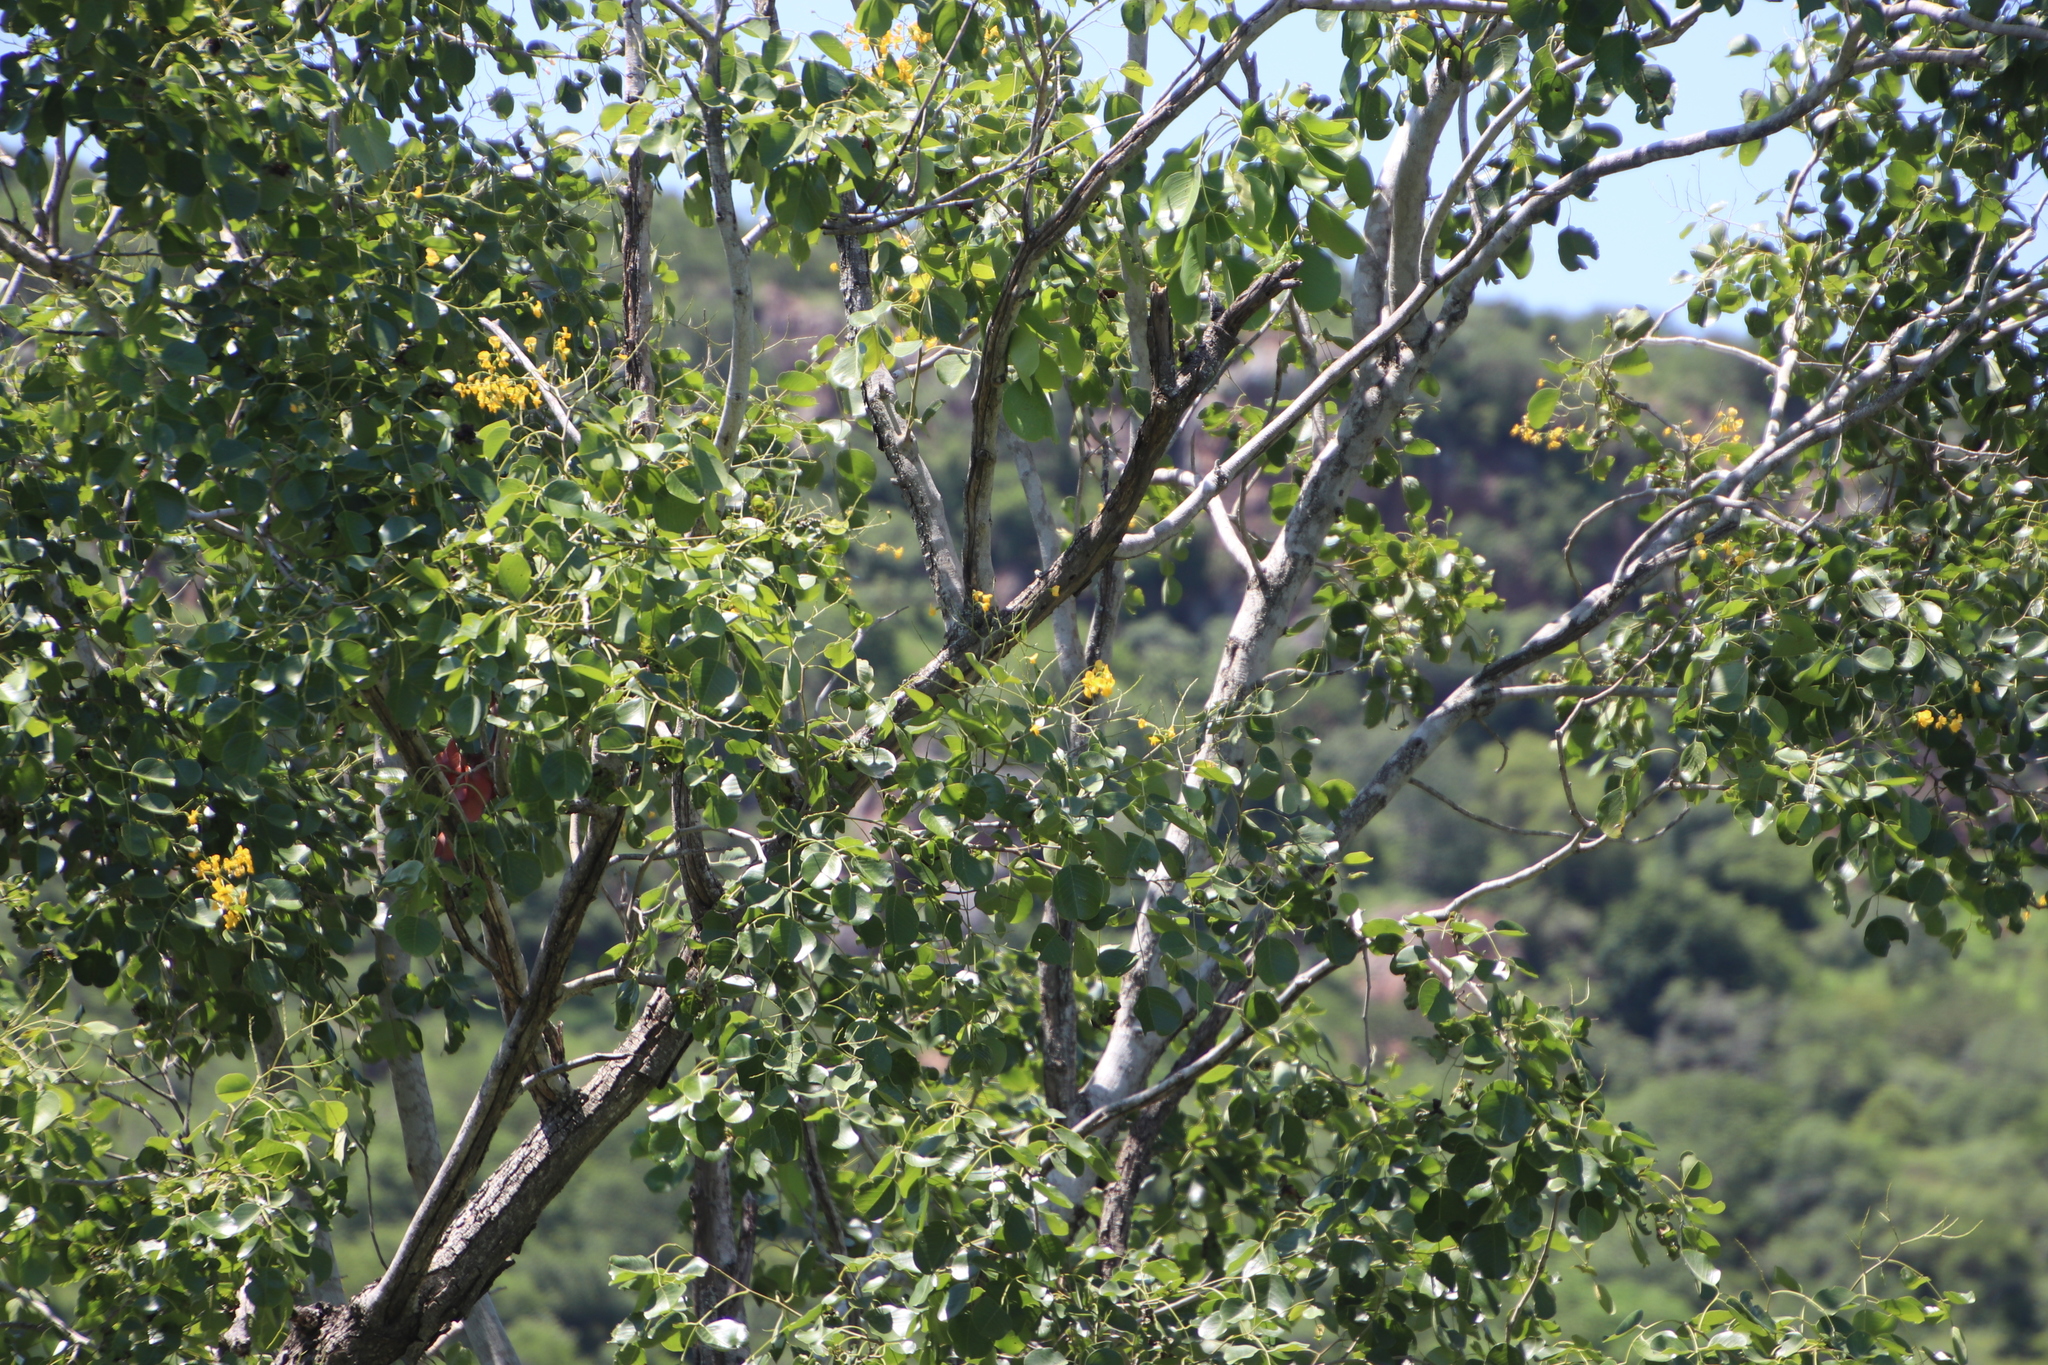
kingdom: Plantae
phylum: Tracheophyta
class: Magnoliopsida
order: Fabales
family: Fabaceae
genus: Pterocarpus
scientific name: Pterocarpus rotundifolius
